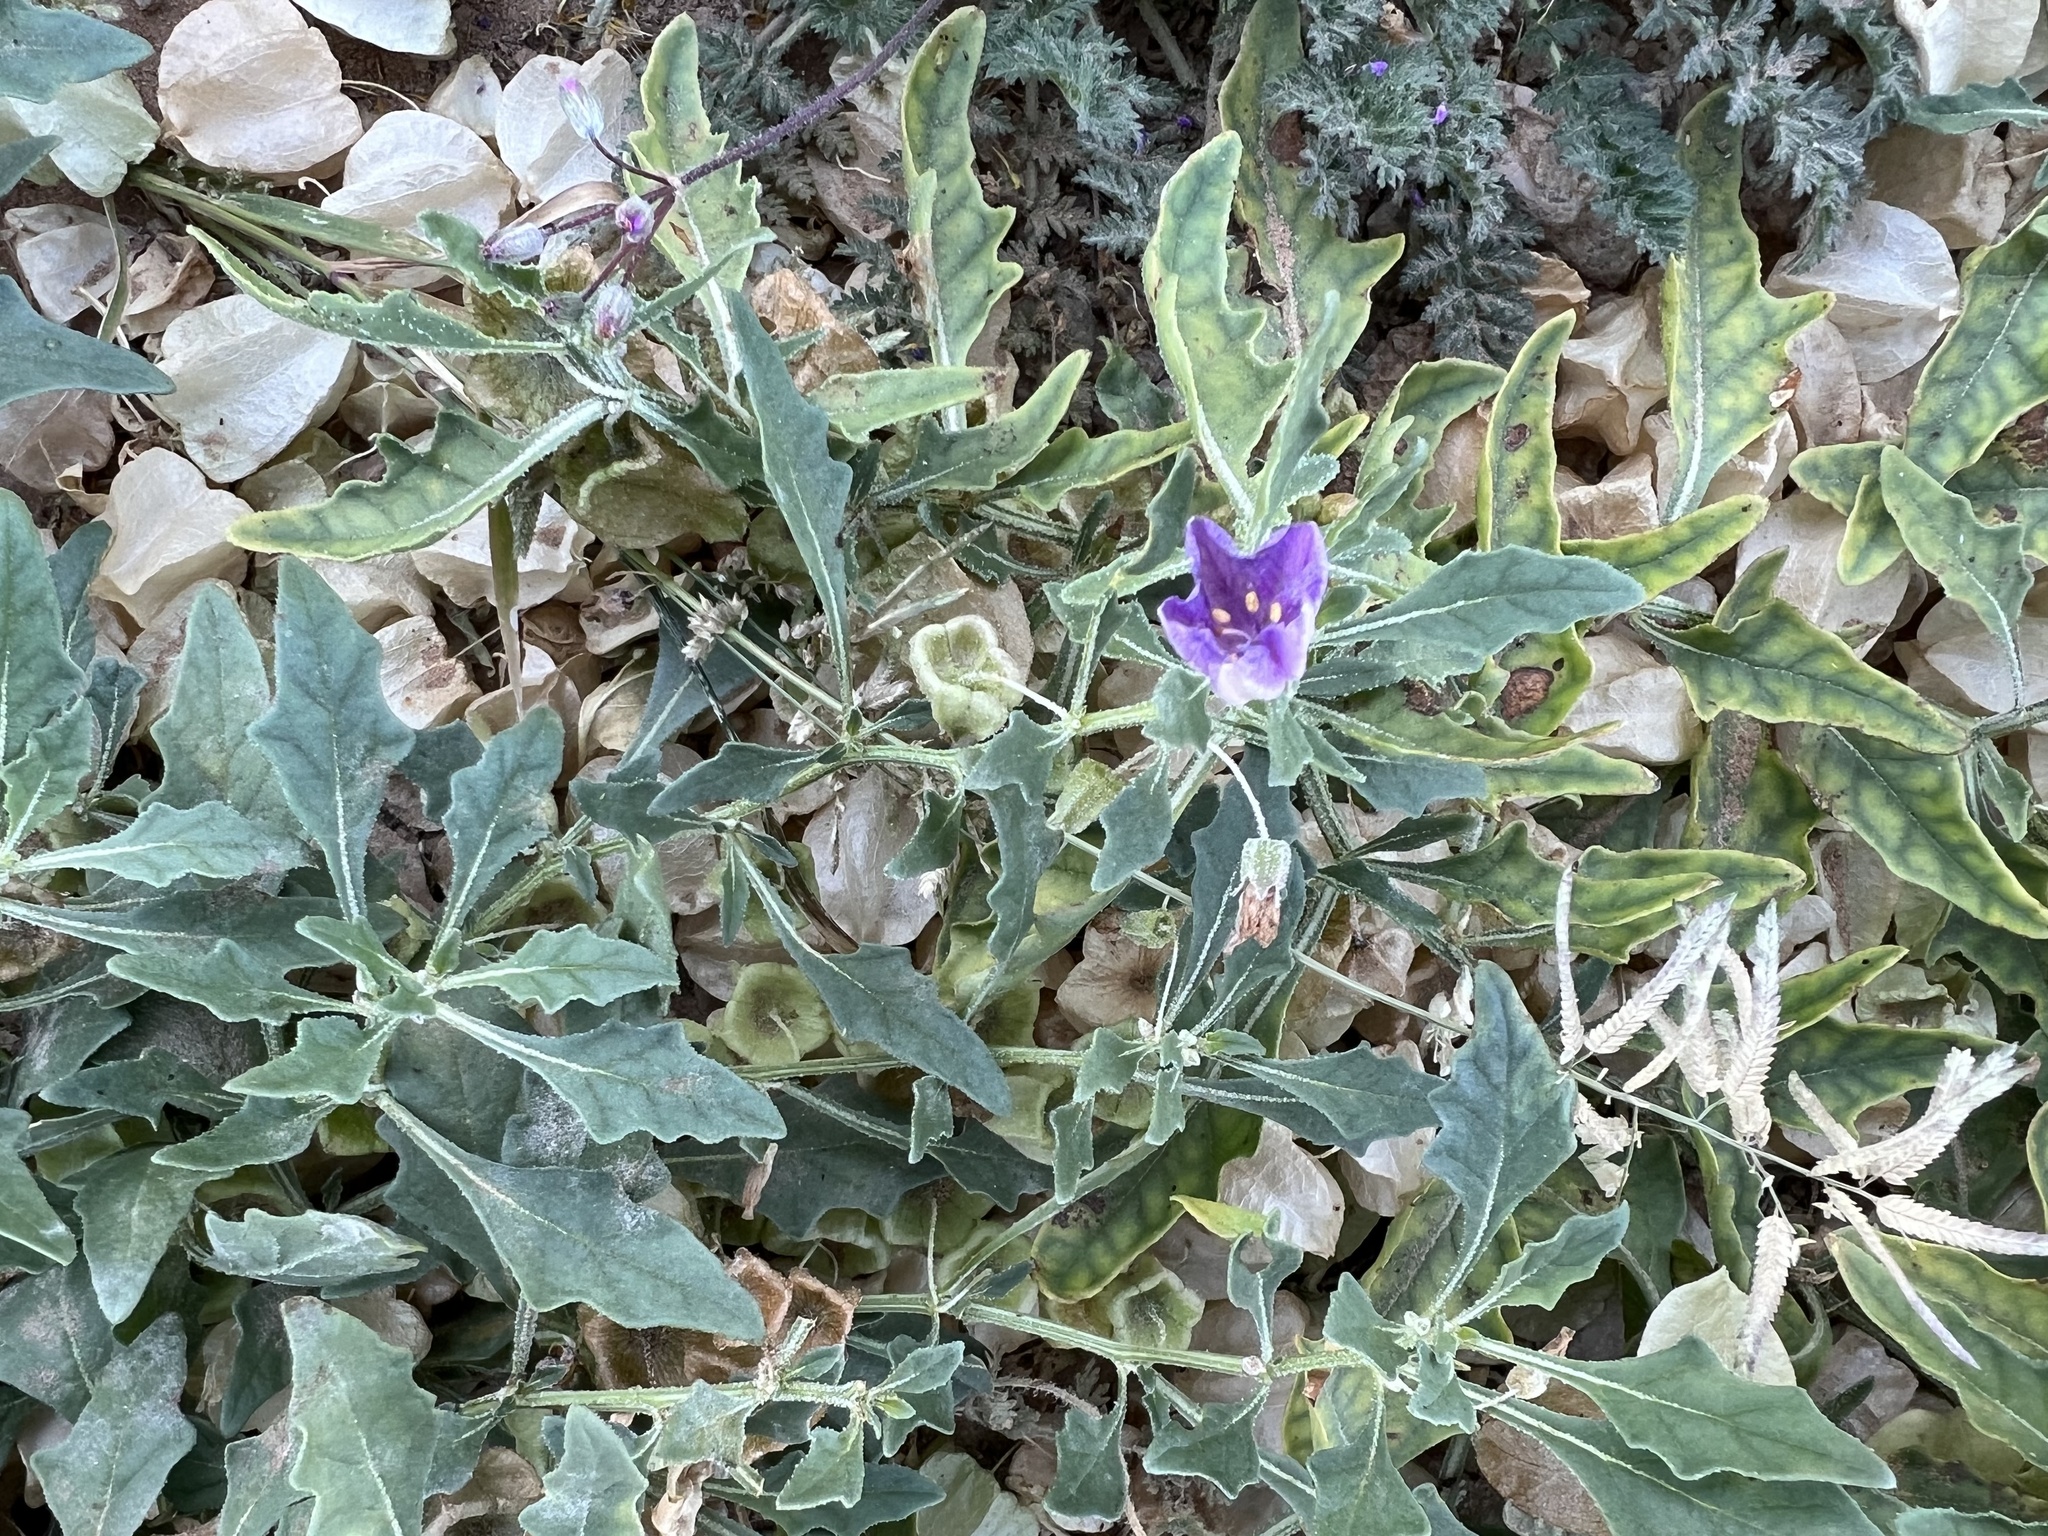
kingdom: Plantae
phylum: Tracheophyta
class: Magnoliopsida
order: Solanales
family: Solanaceae
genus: Quincula
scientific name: Quincula lobata
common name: Purple-ground-cherry
